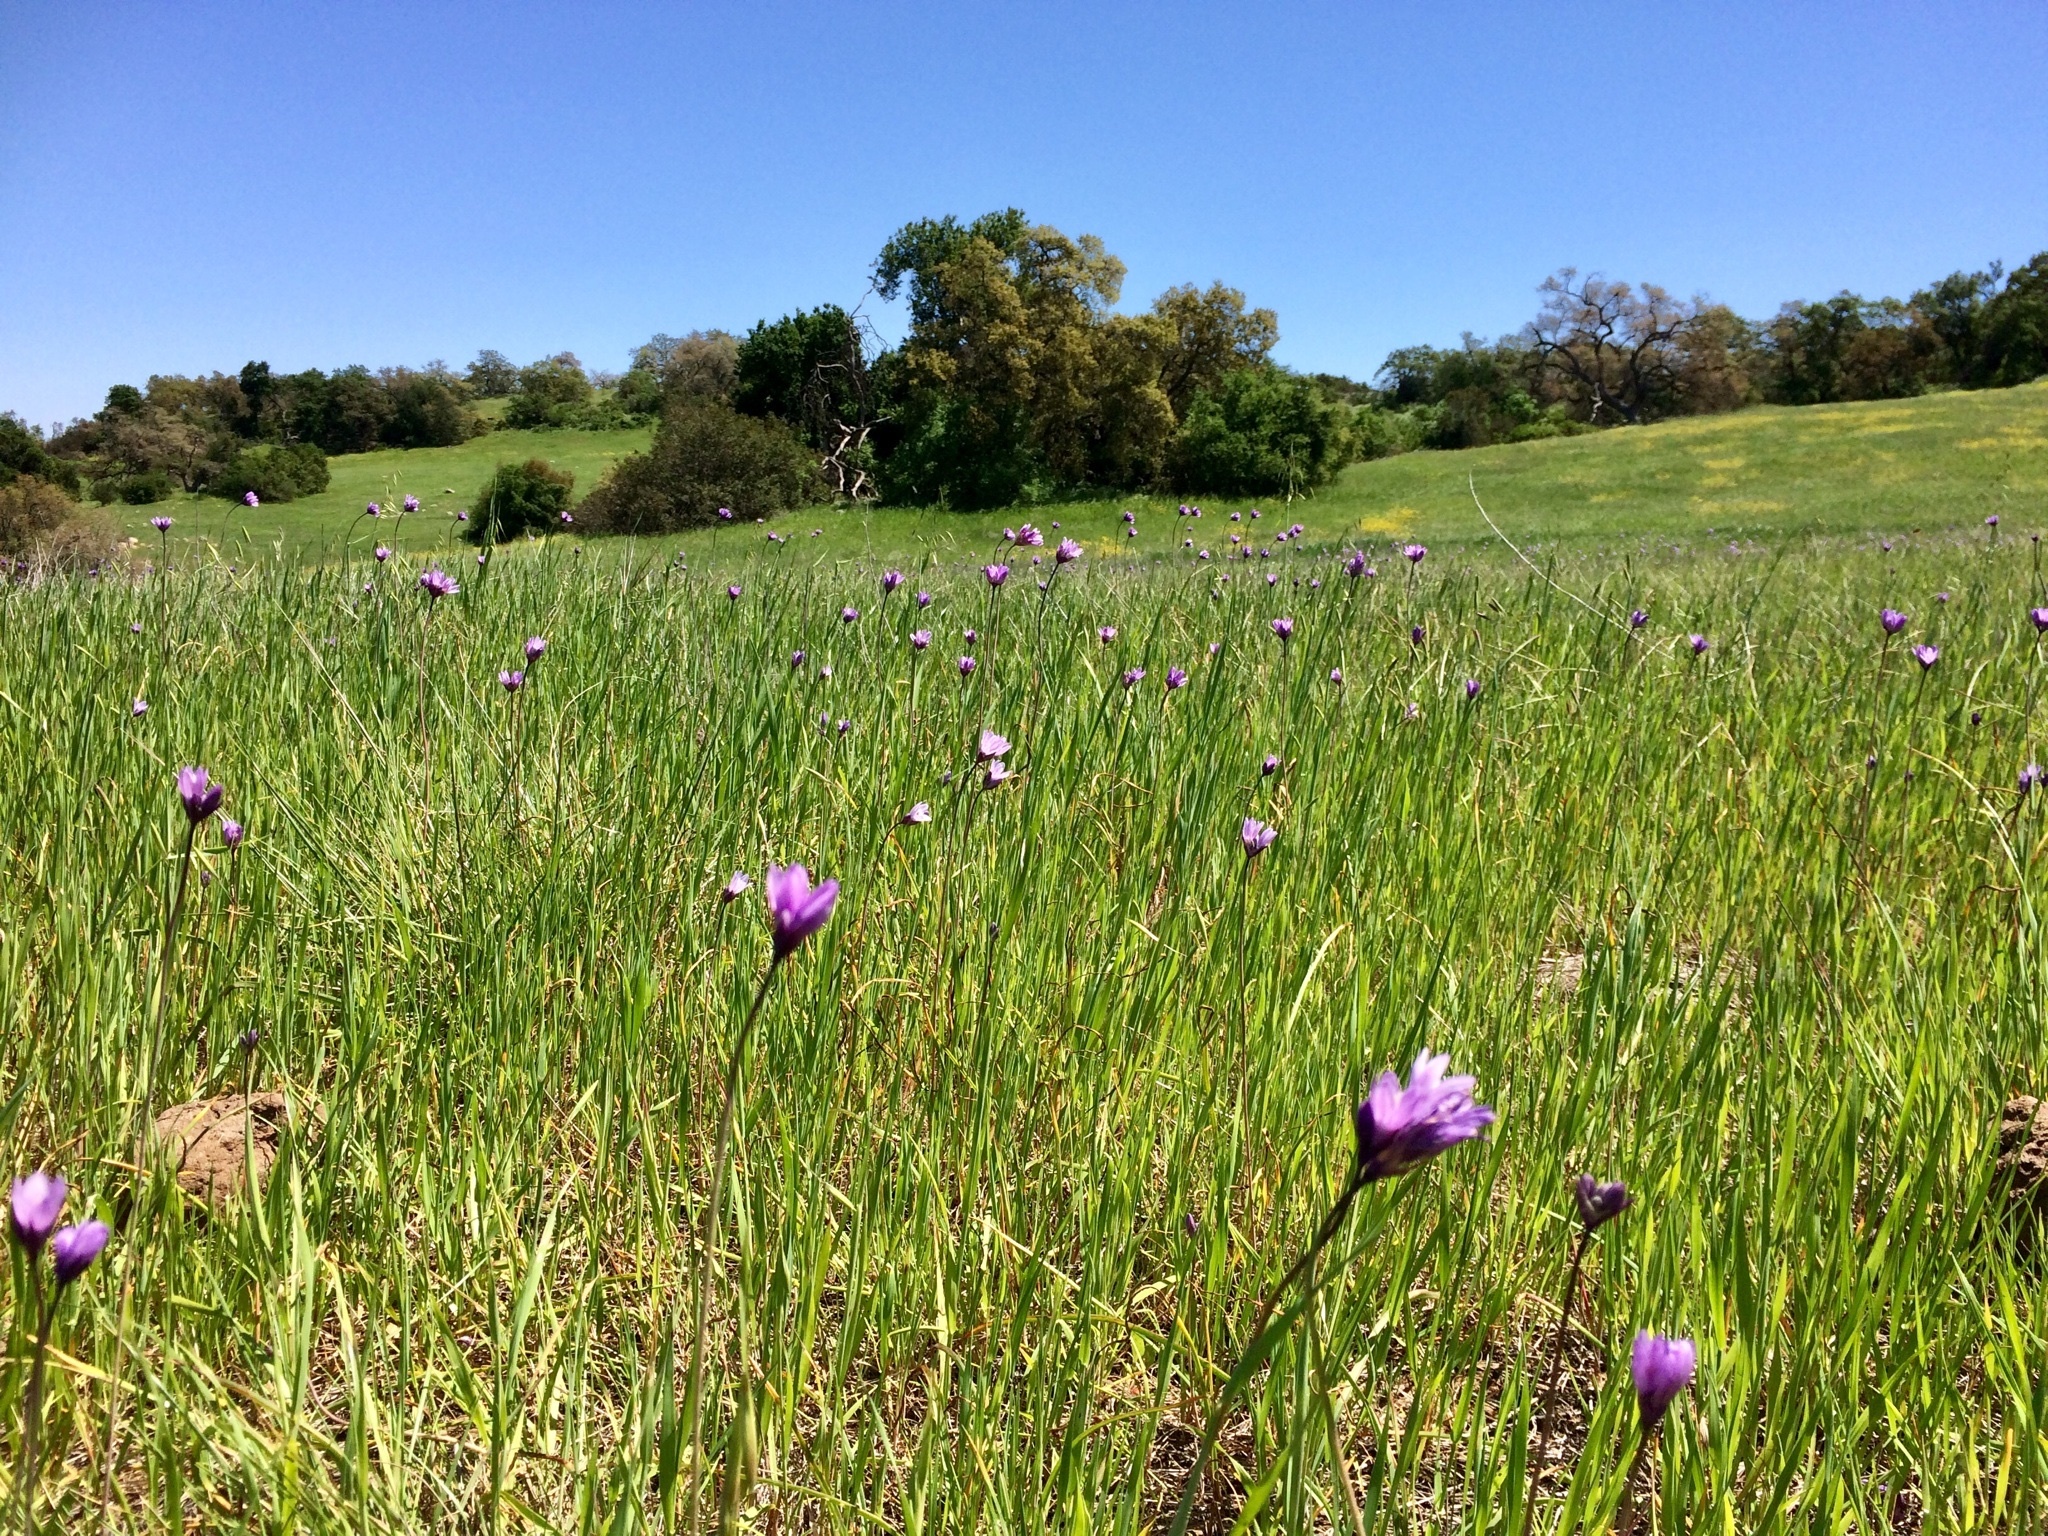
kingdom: Plantae
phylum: Tracheophyta
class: Liliopsida
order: Asparagales
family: Asparagaceae
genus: Dipterostemon
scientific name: Dipterostemon capitatus
